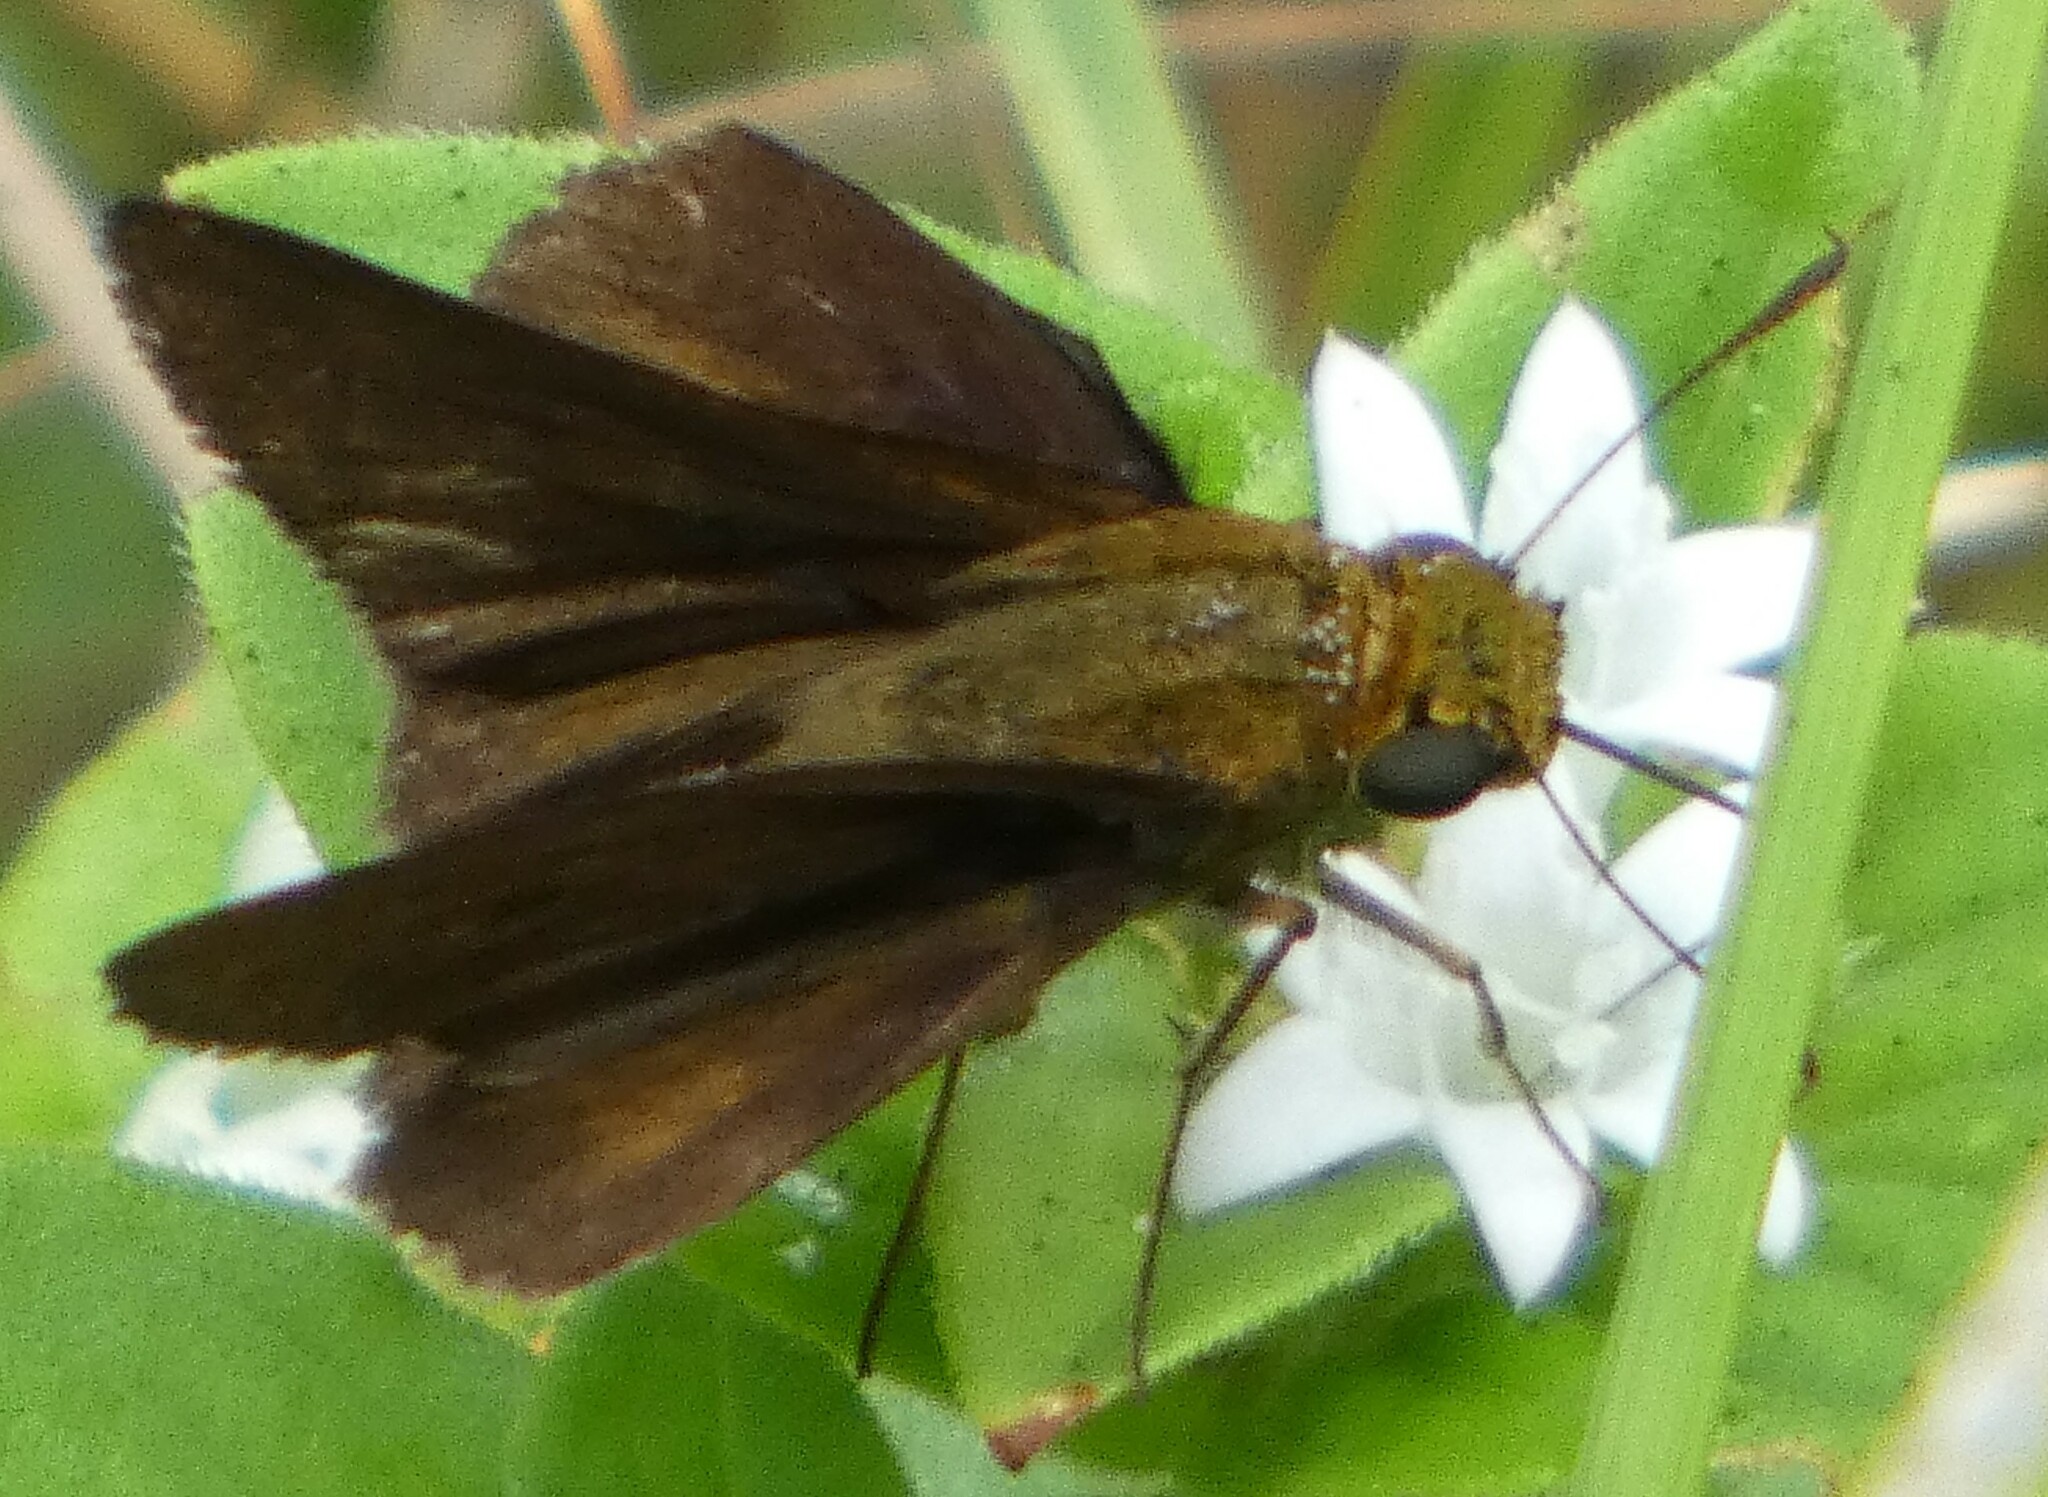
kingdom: Animalia
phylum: Arthropoda
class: Insecta
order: Lepidoptera
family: Hesperiidae
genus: Euphyes
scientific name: Euphyes vestris
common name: Dun skipper
